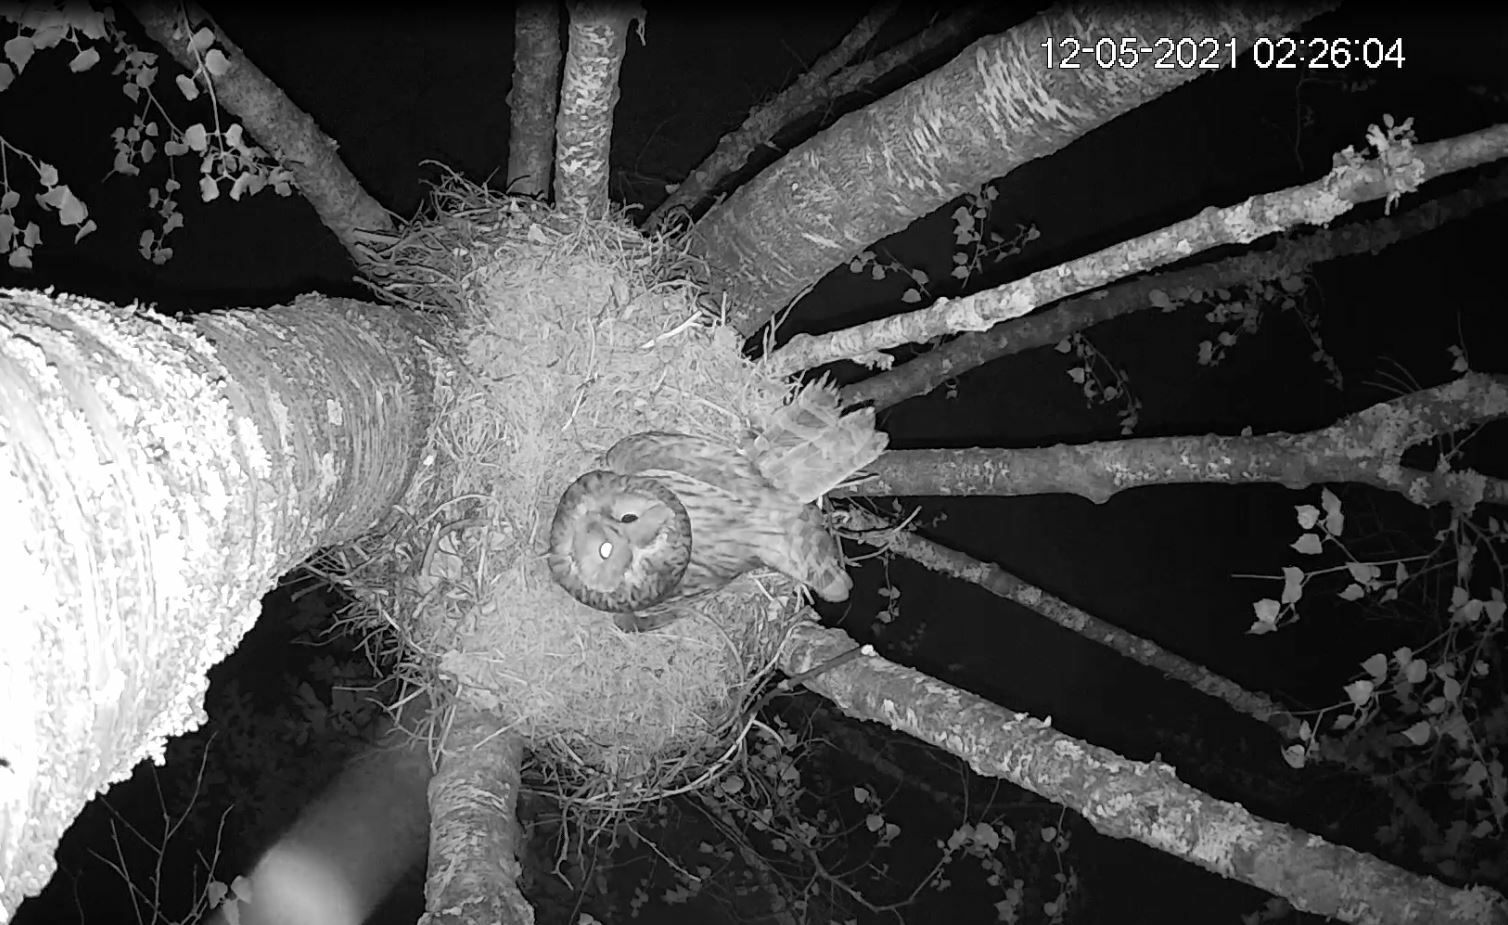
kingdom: Animalia
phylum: Chordata
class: Aves
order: Strigiformes
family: Strigidae
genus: Strix
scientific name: Strix uralensis
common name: Ural owl
